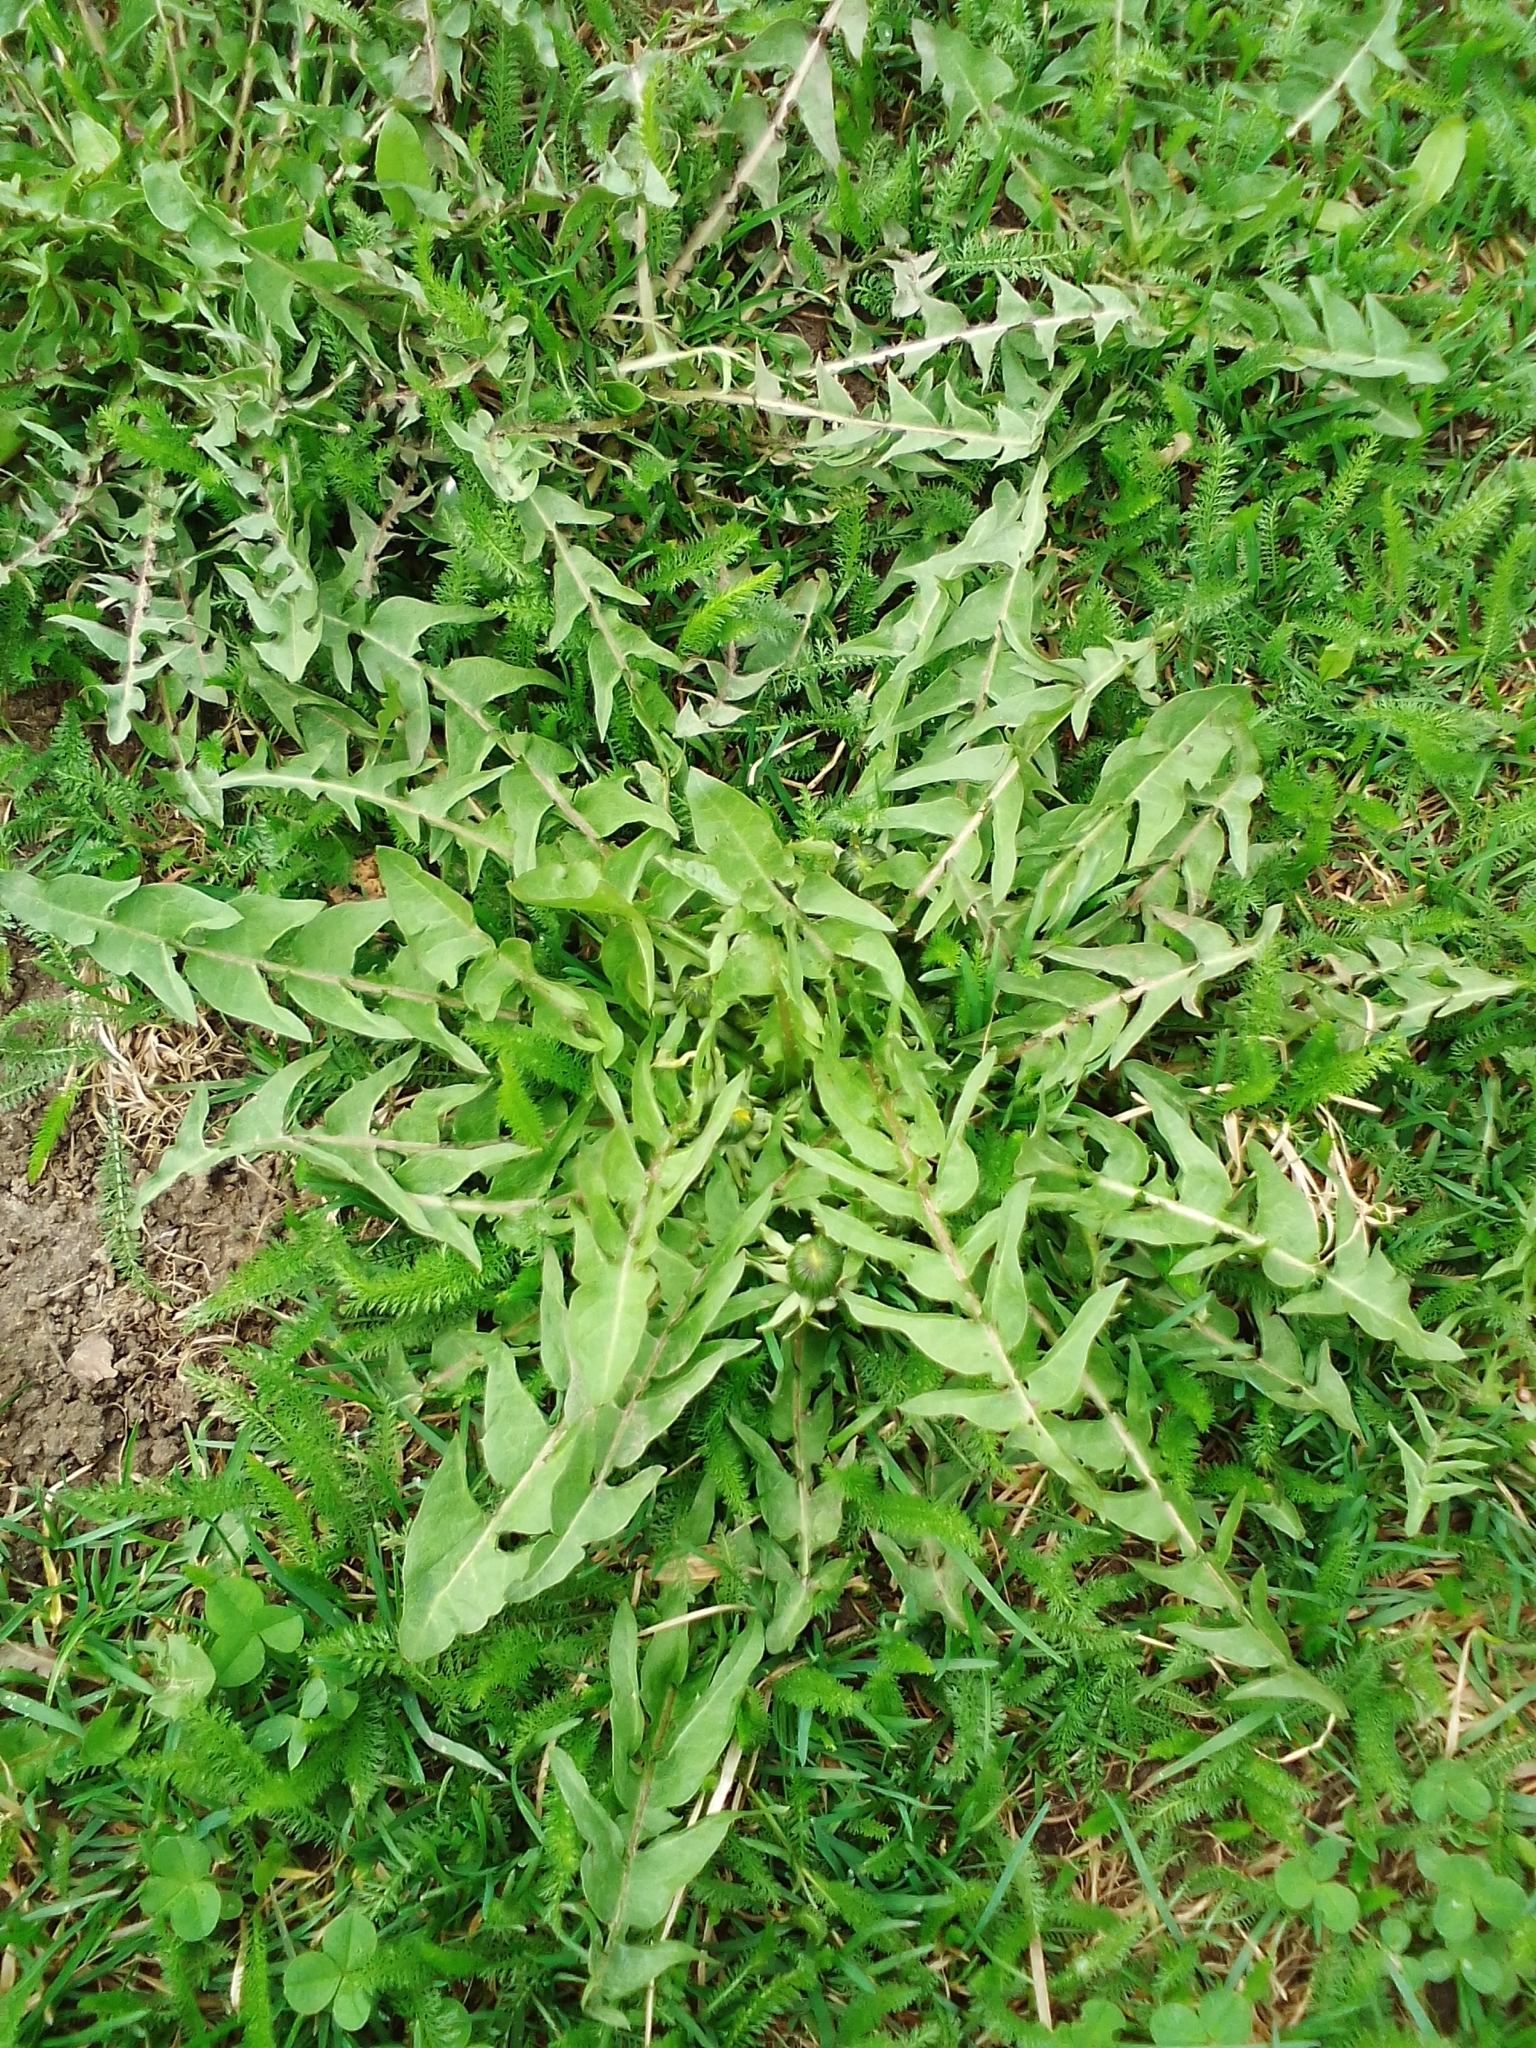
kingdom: Plantae
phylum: Tracheophyta
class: Magnoliopsida
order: Asterales
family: Asteraceae
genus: Taraxacum
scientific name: Taraxacum officinale
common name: Common dandelion
